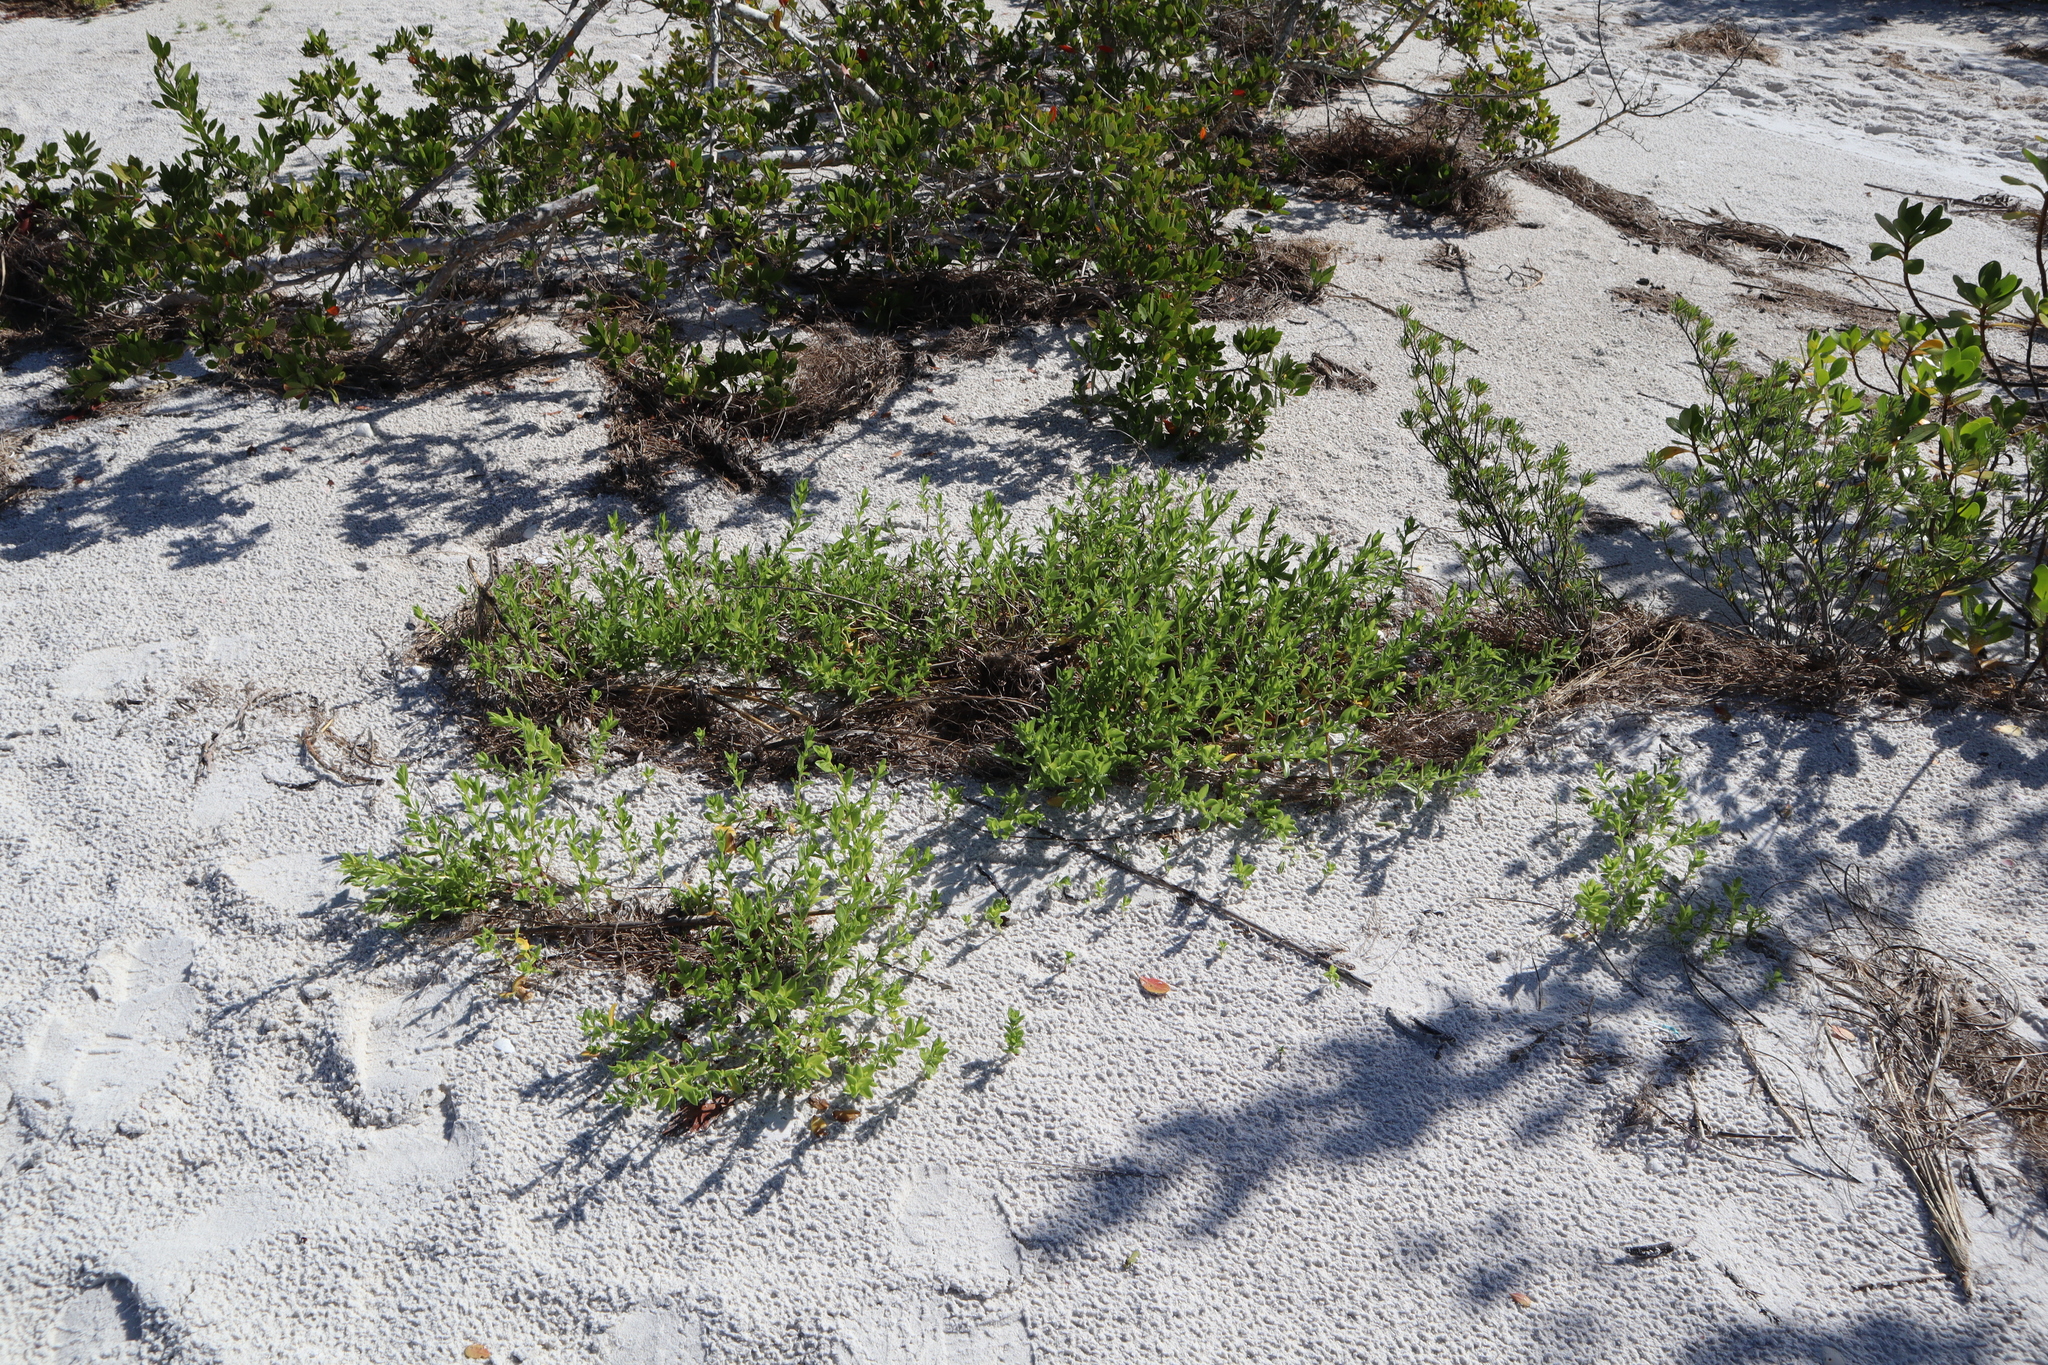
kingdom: Plantae
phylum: Tracheophyta
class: Magnoliopsida
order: Asterales
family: Asteraceae
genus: Iva
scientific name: Iva imbricata
